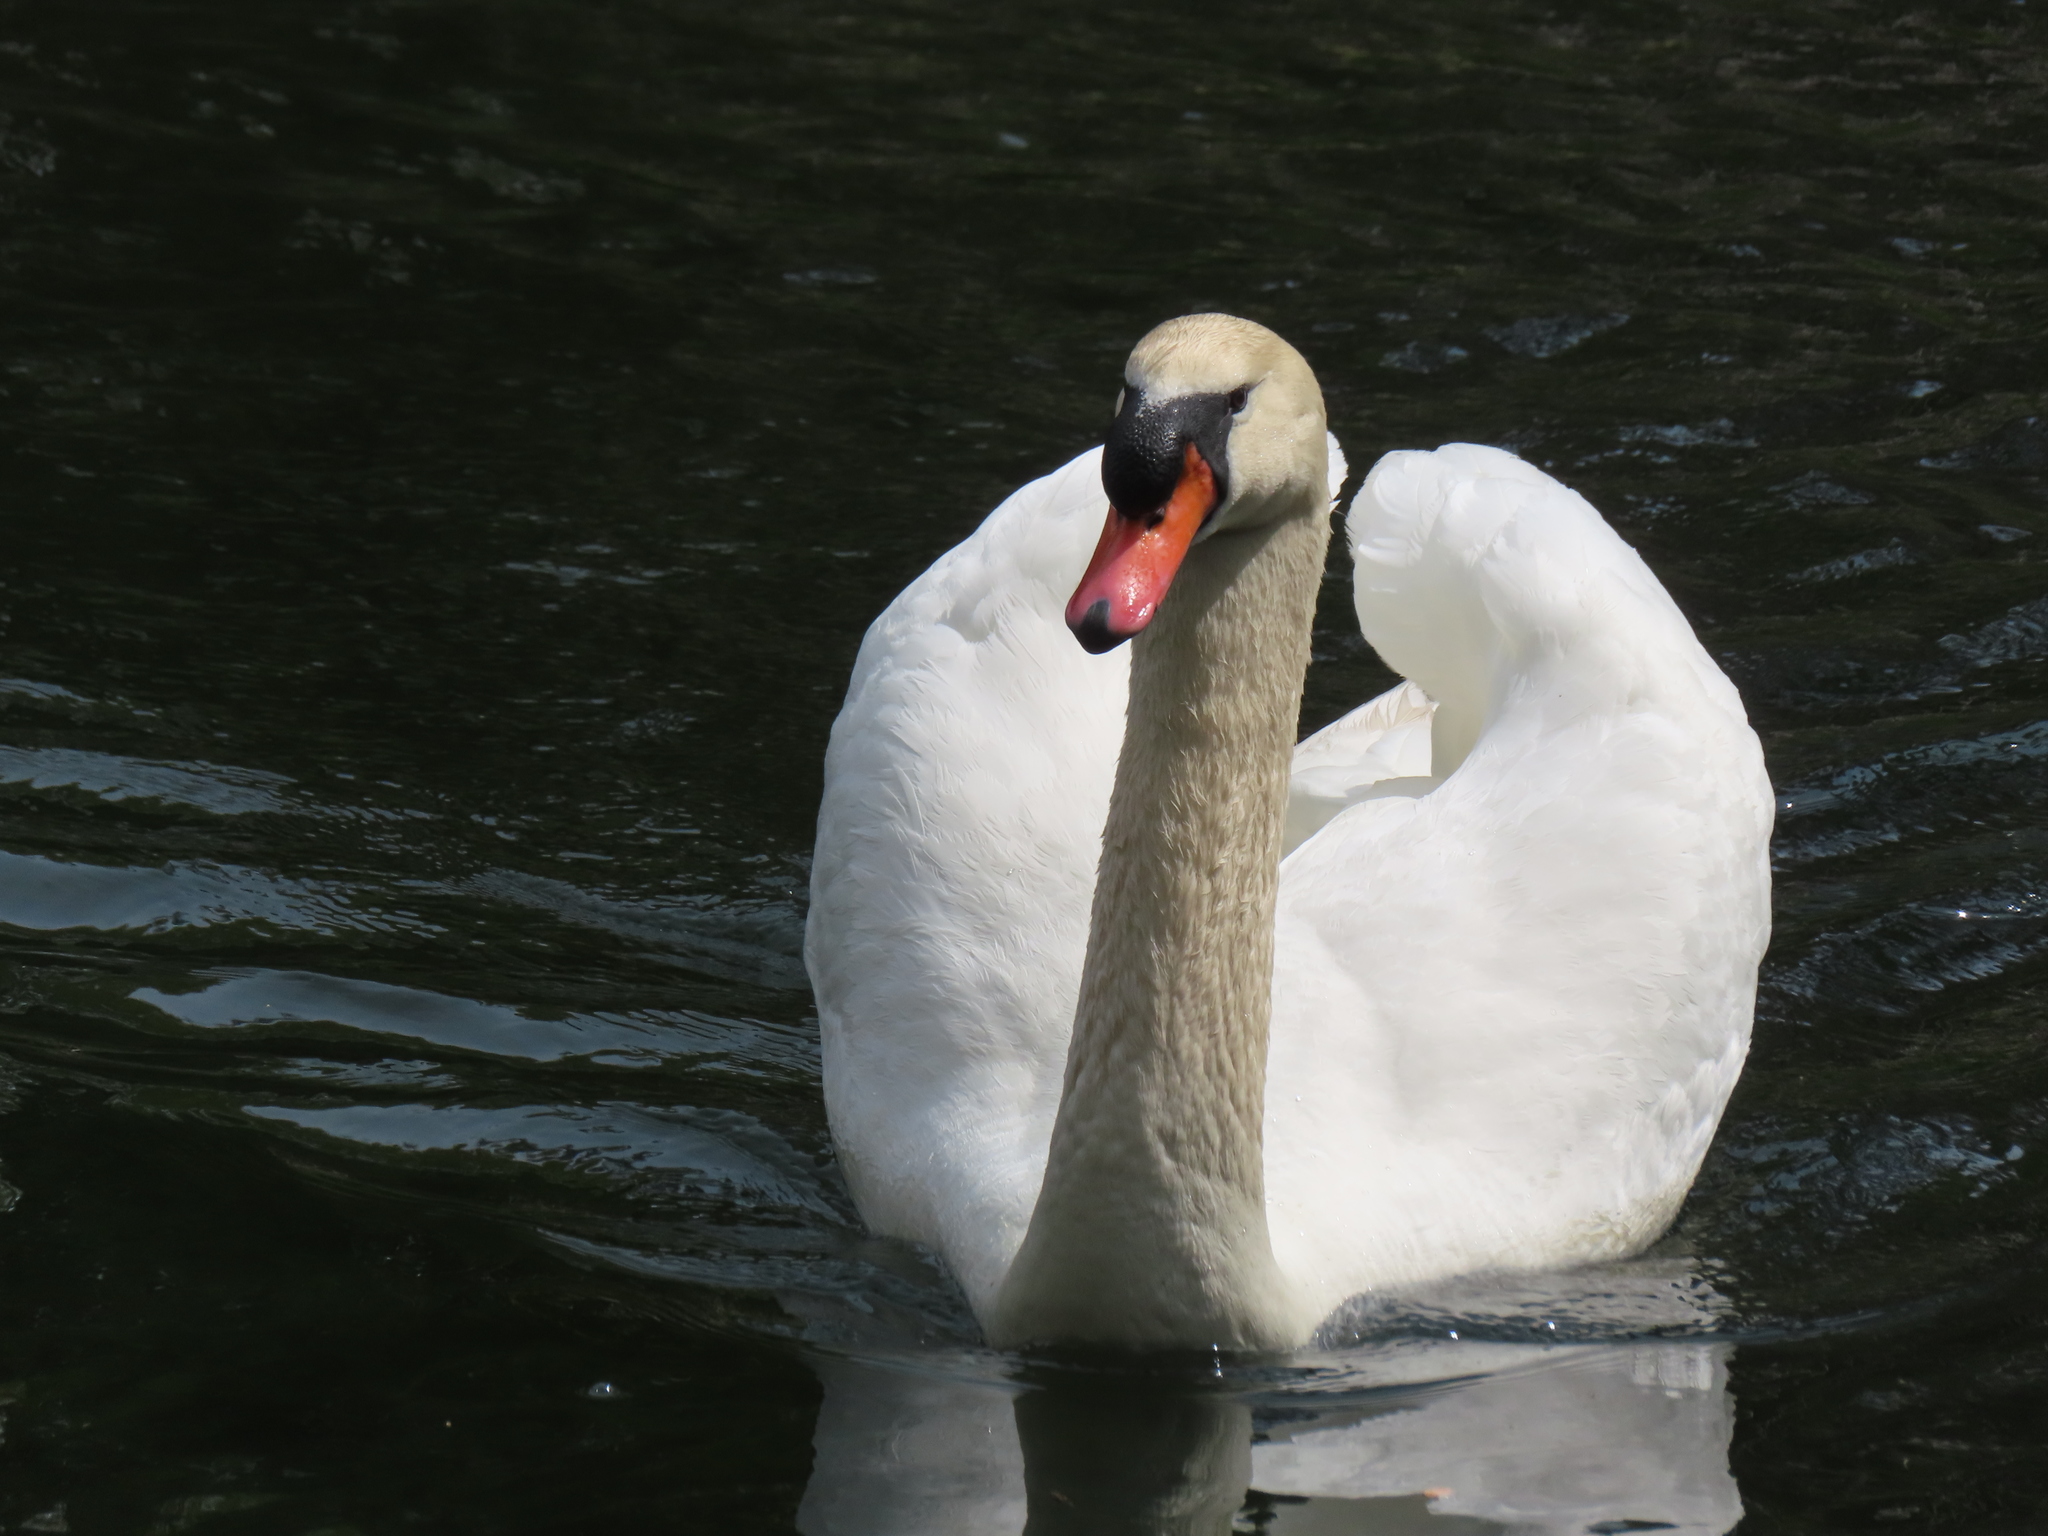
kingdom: Animalia
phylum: Chordata
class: Aves
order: Anseriformes
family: Anatidae
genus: Cygnus
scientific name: Cygnus olor
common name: Mute swan
